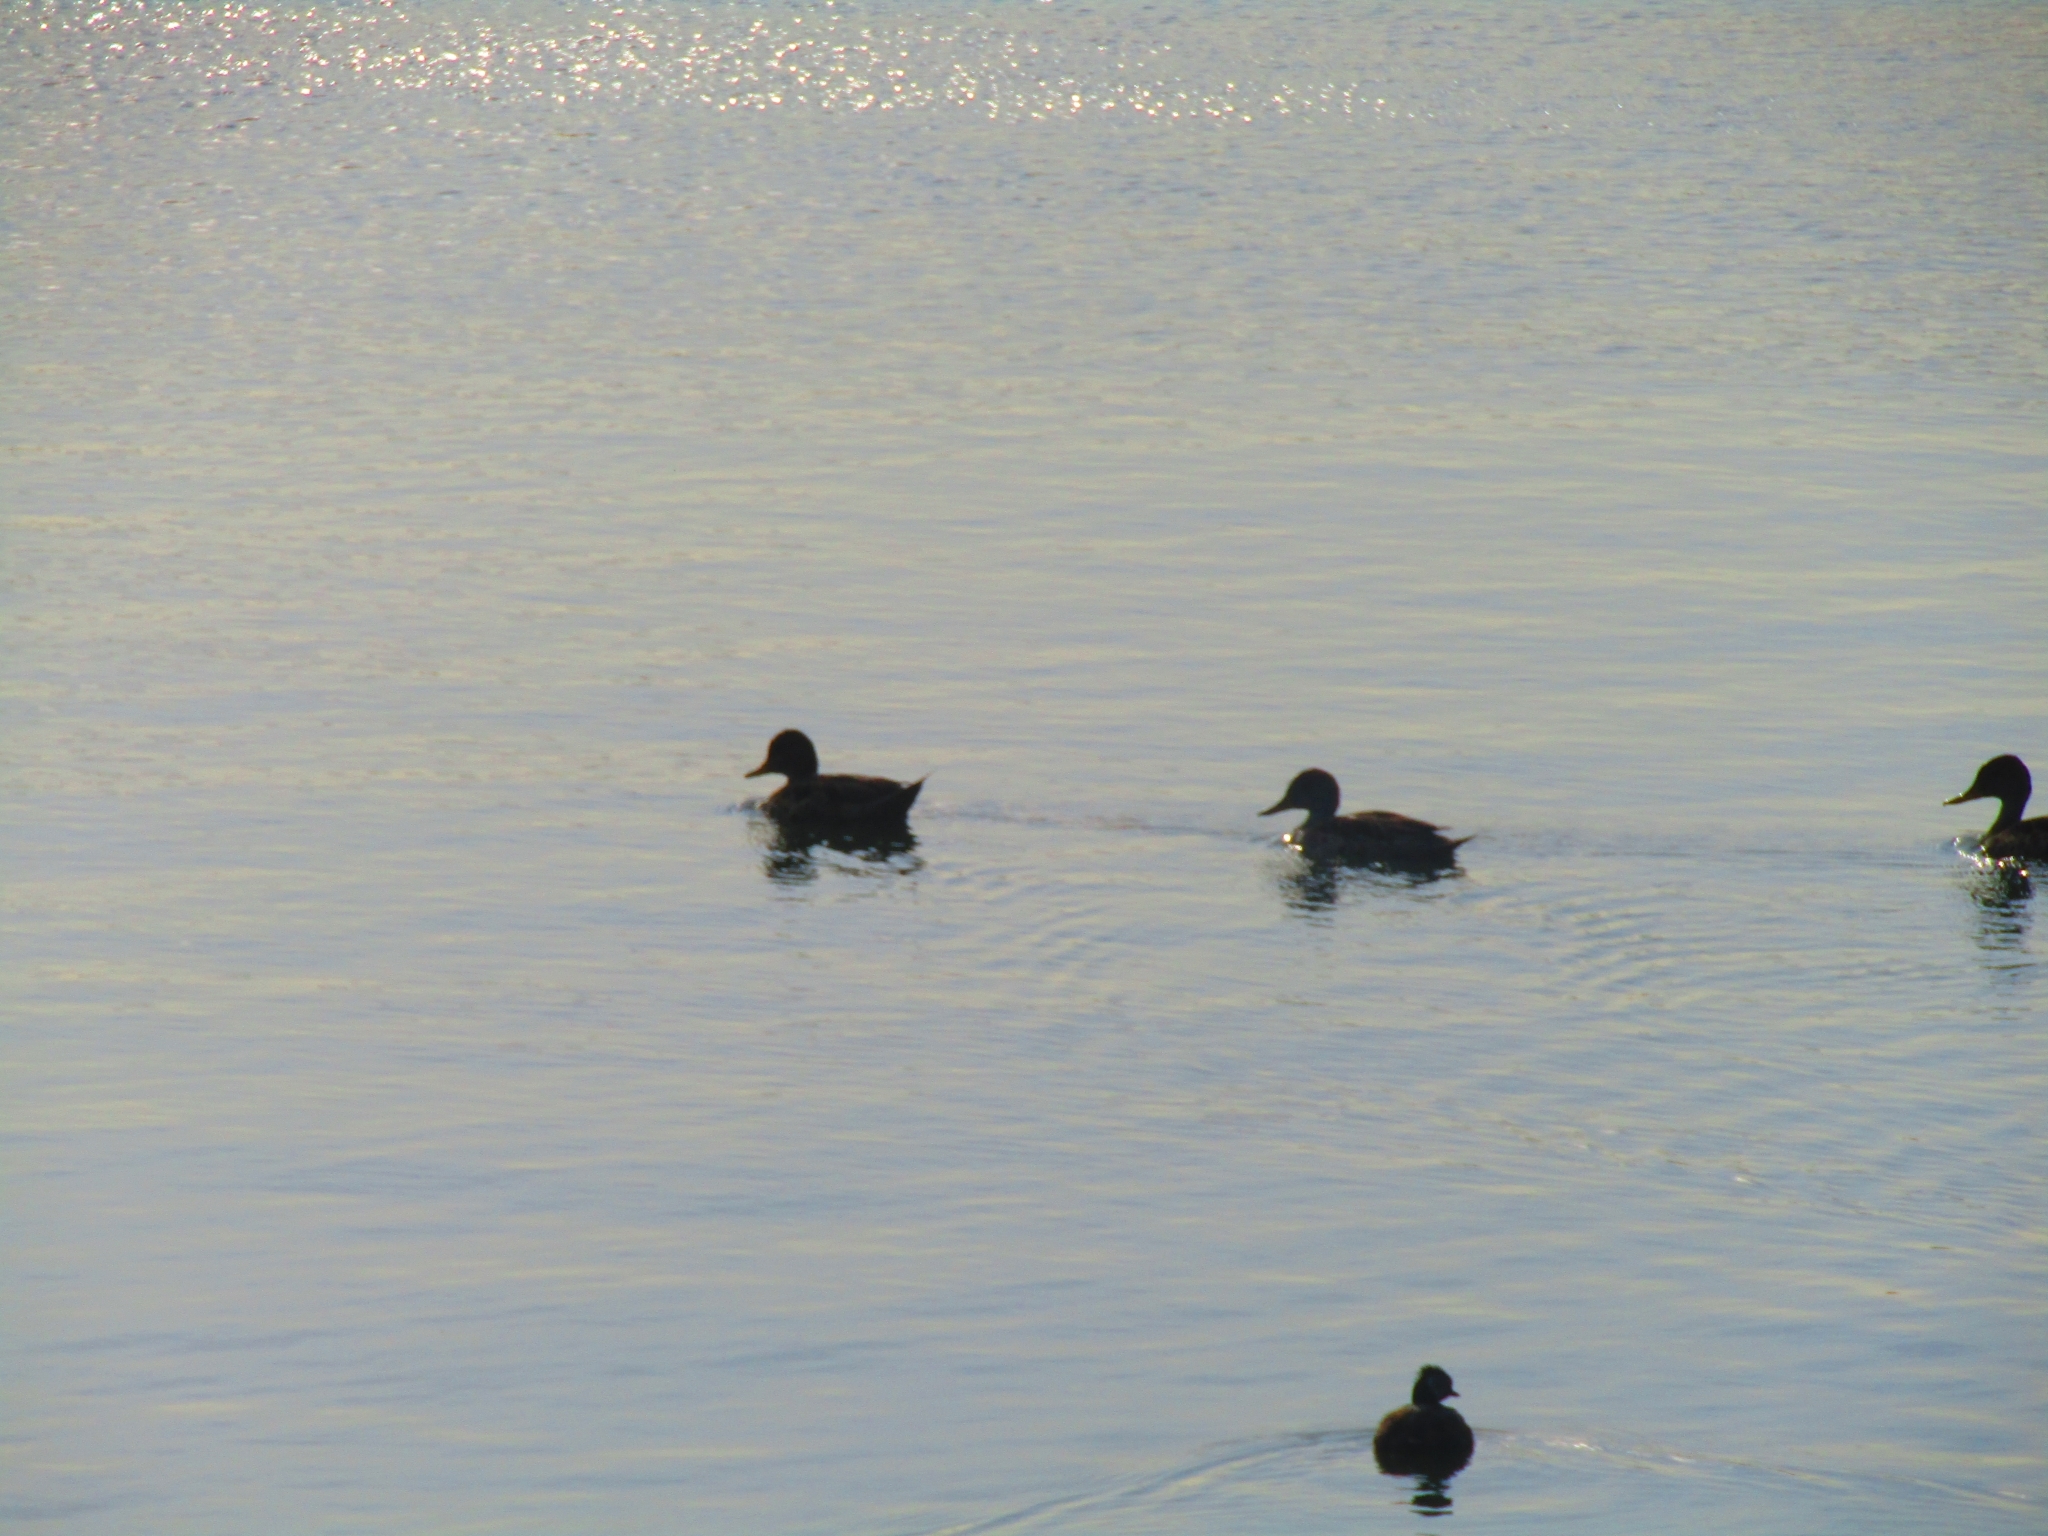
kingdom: Animalia
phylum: Chordata
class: Aves
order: Anseriformes
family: Anatidae
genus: Anas
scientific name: Anas georgica
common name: Yellow-billed pintail
